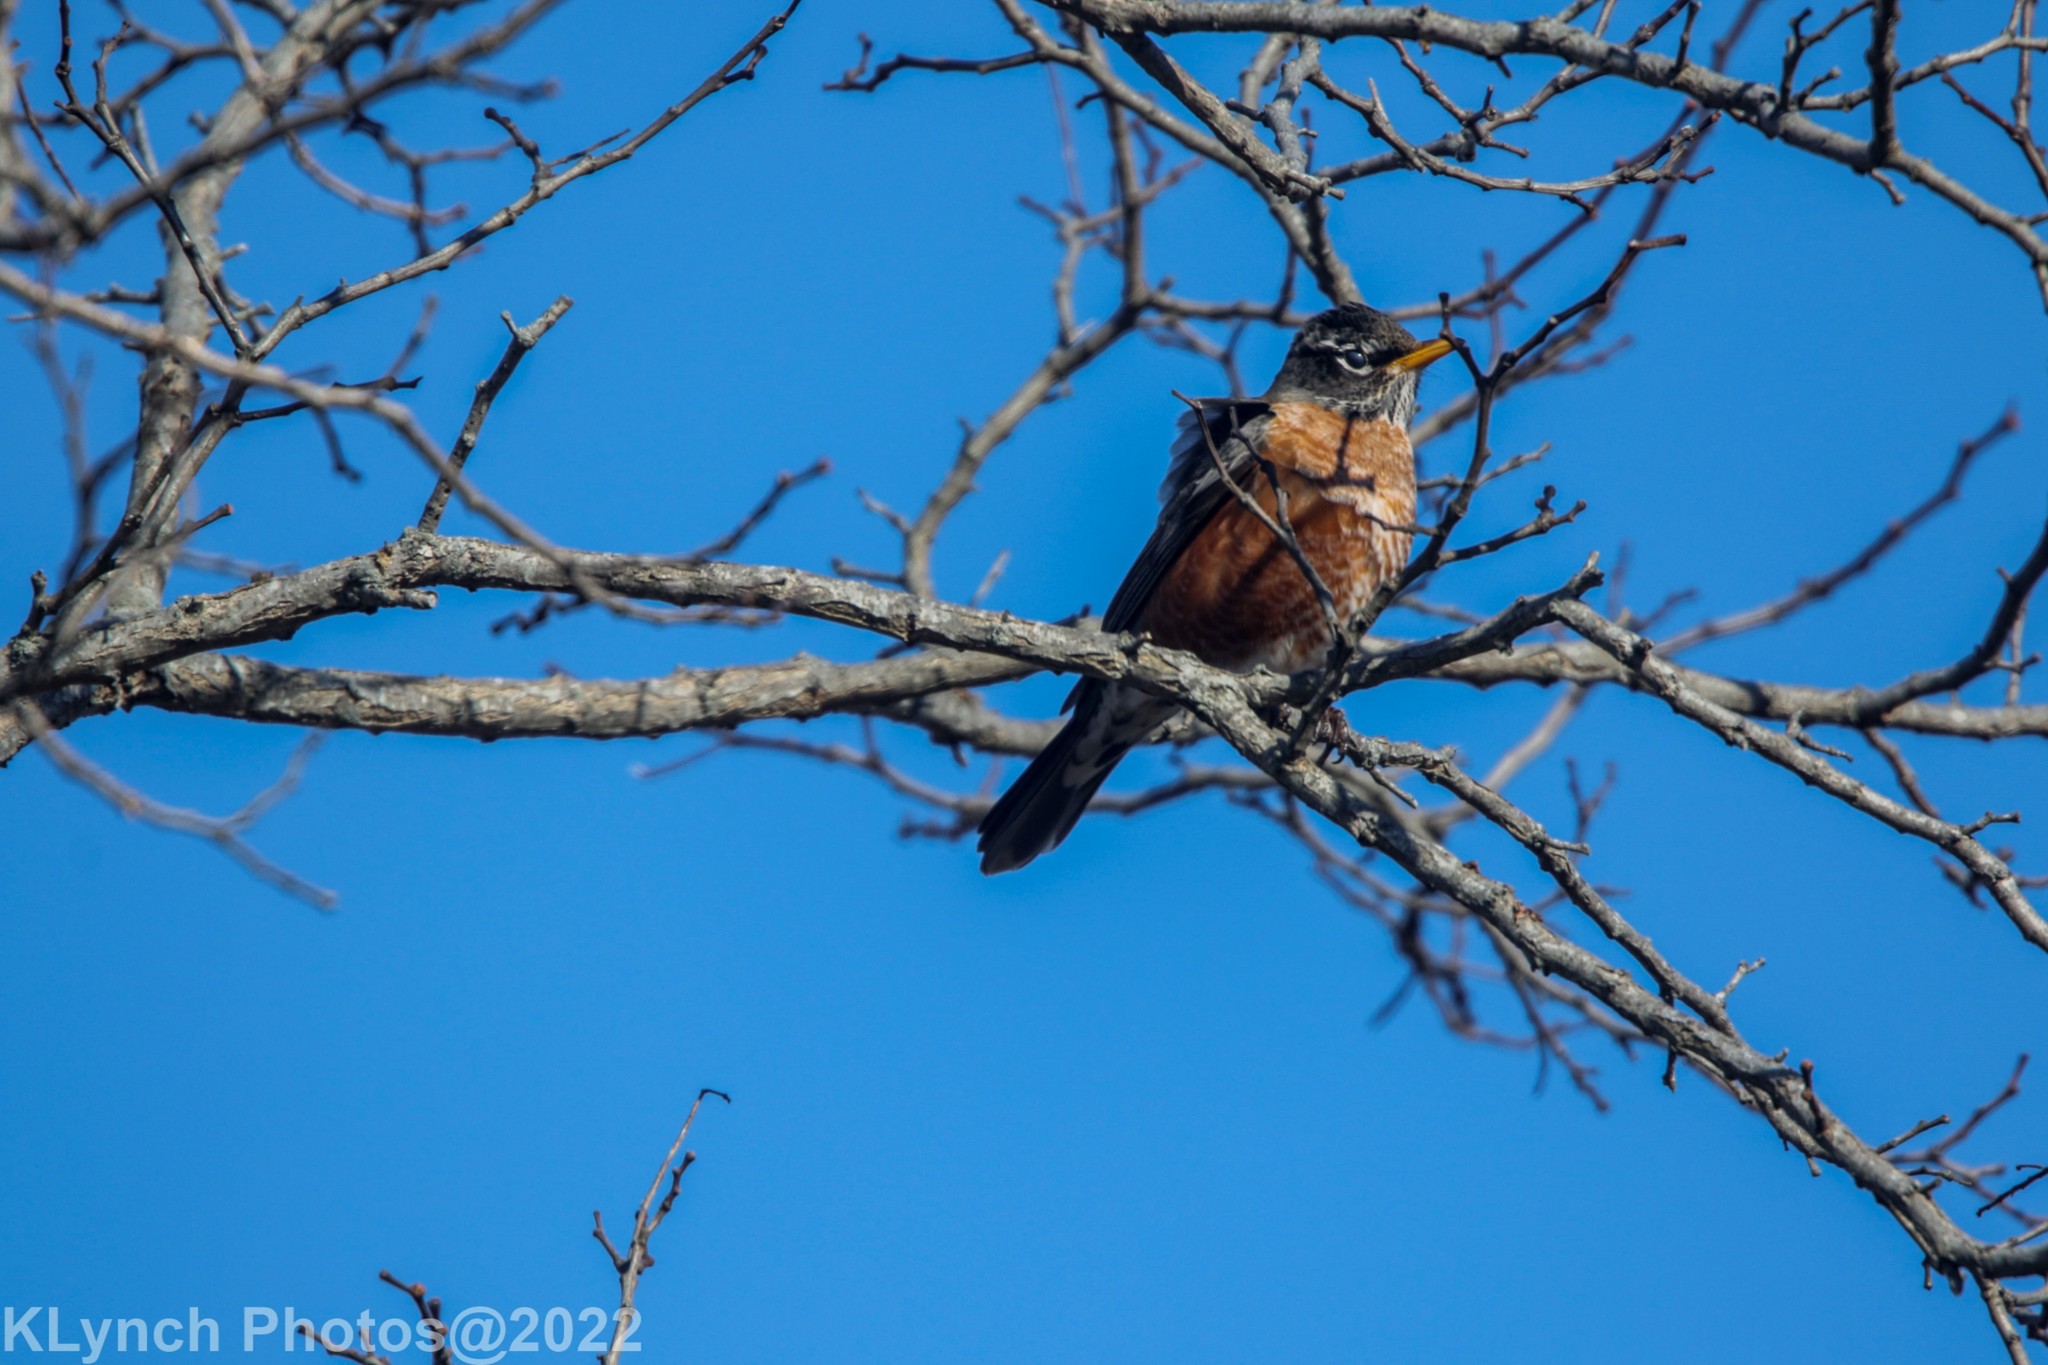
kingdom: Animalia
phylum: Chordata
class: Aves
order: Passeriformes
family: Turdidae
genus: Turdus
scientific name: Turdus migratorius
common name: American robin
